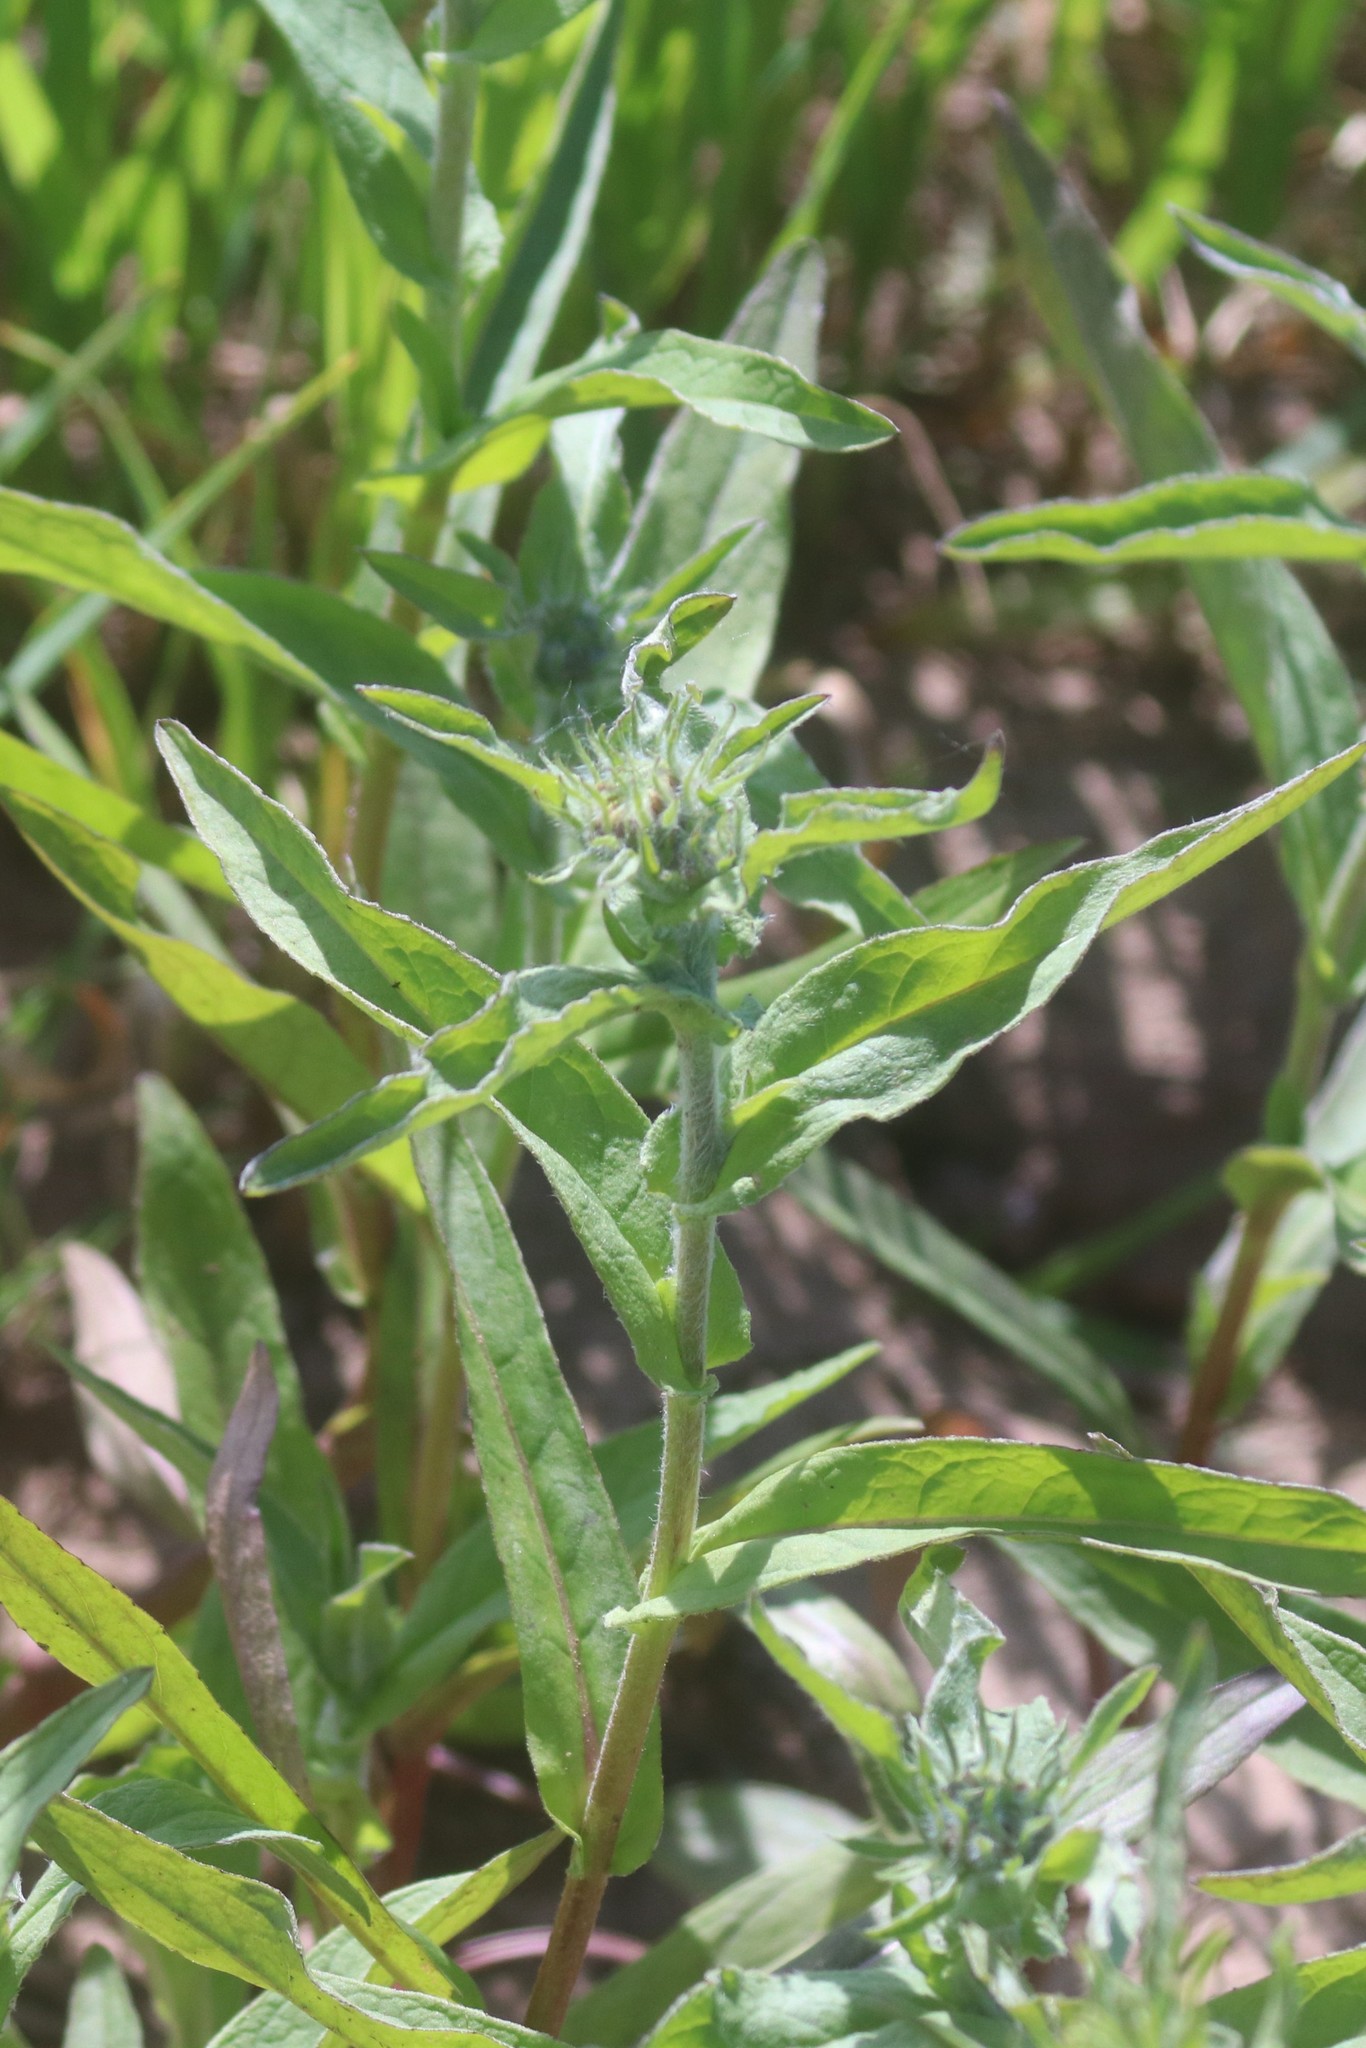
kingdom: Plantae
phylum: Tracheophyta
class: Magnoliopsida
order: Asterales
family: Asteraceae
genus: Pentanema
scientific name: Pentanema britannicum
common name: British elecampane
